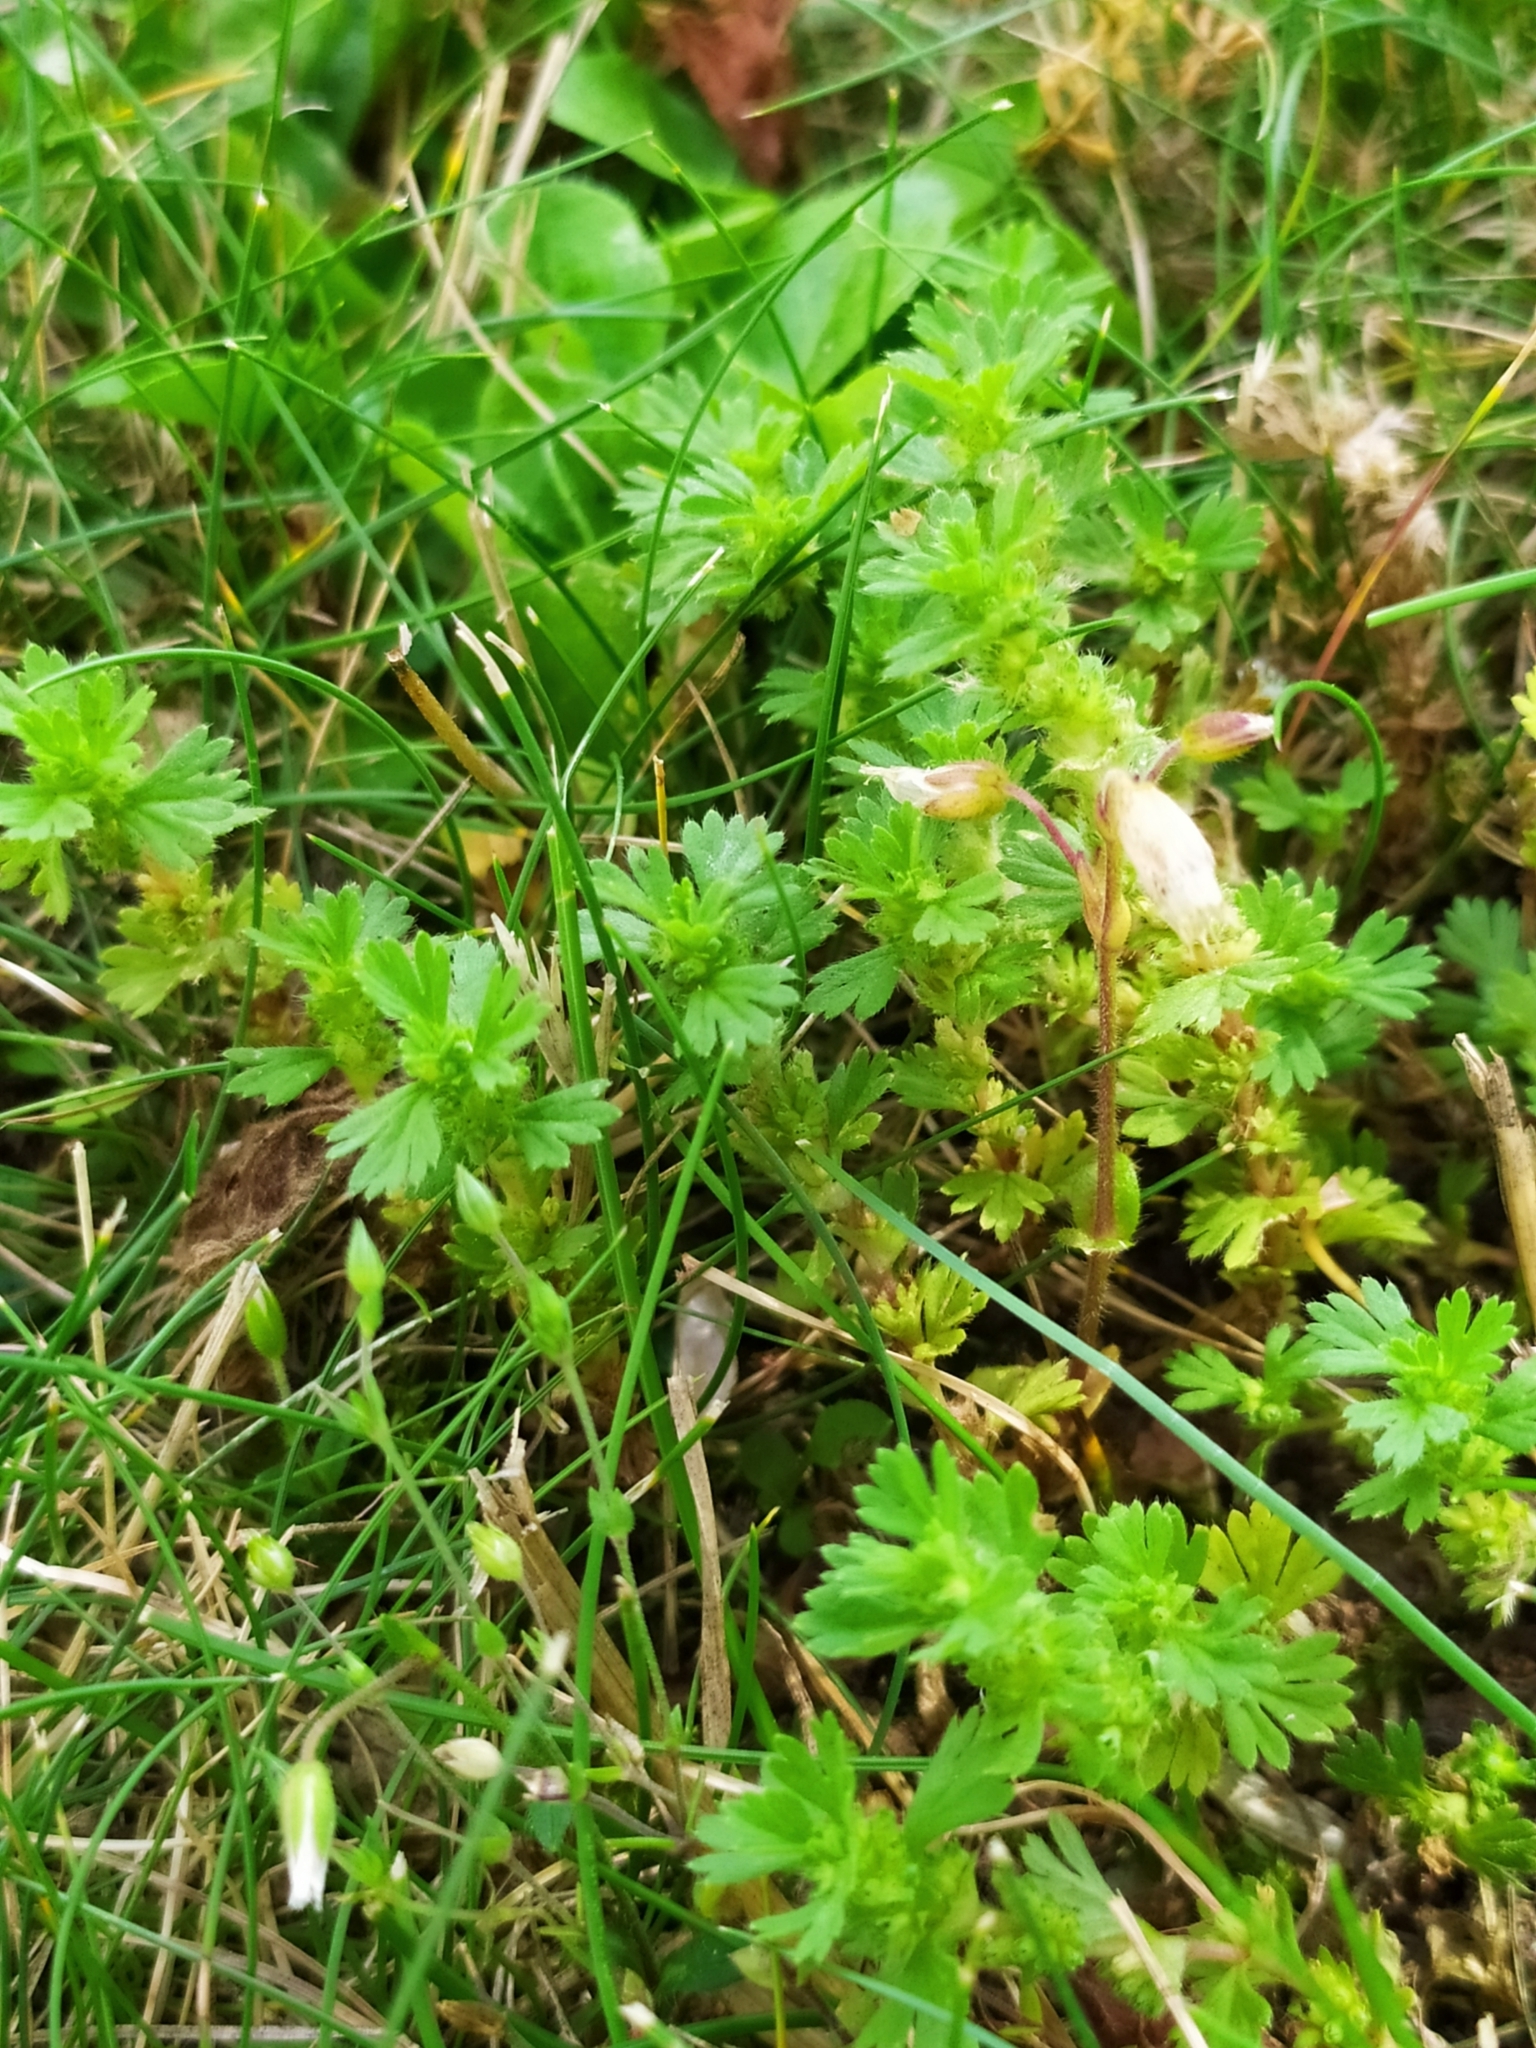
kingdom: Plantae
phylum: Tracheophyta
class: Magnoliopsida
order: Rosales
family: Rosaceae
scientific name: Rosaceae
